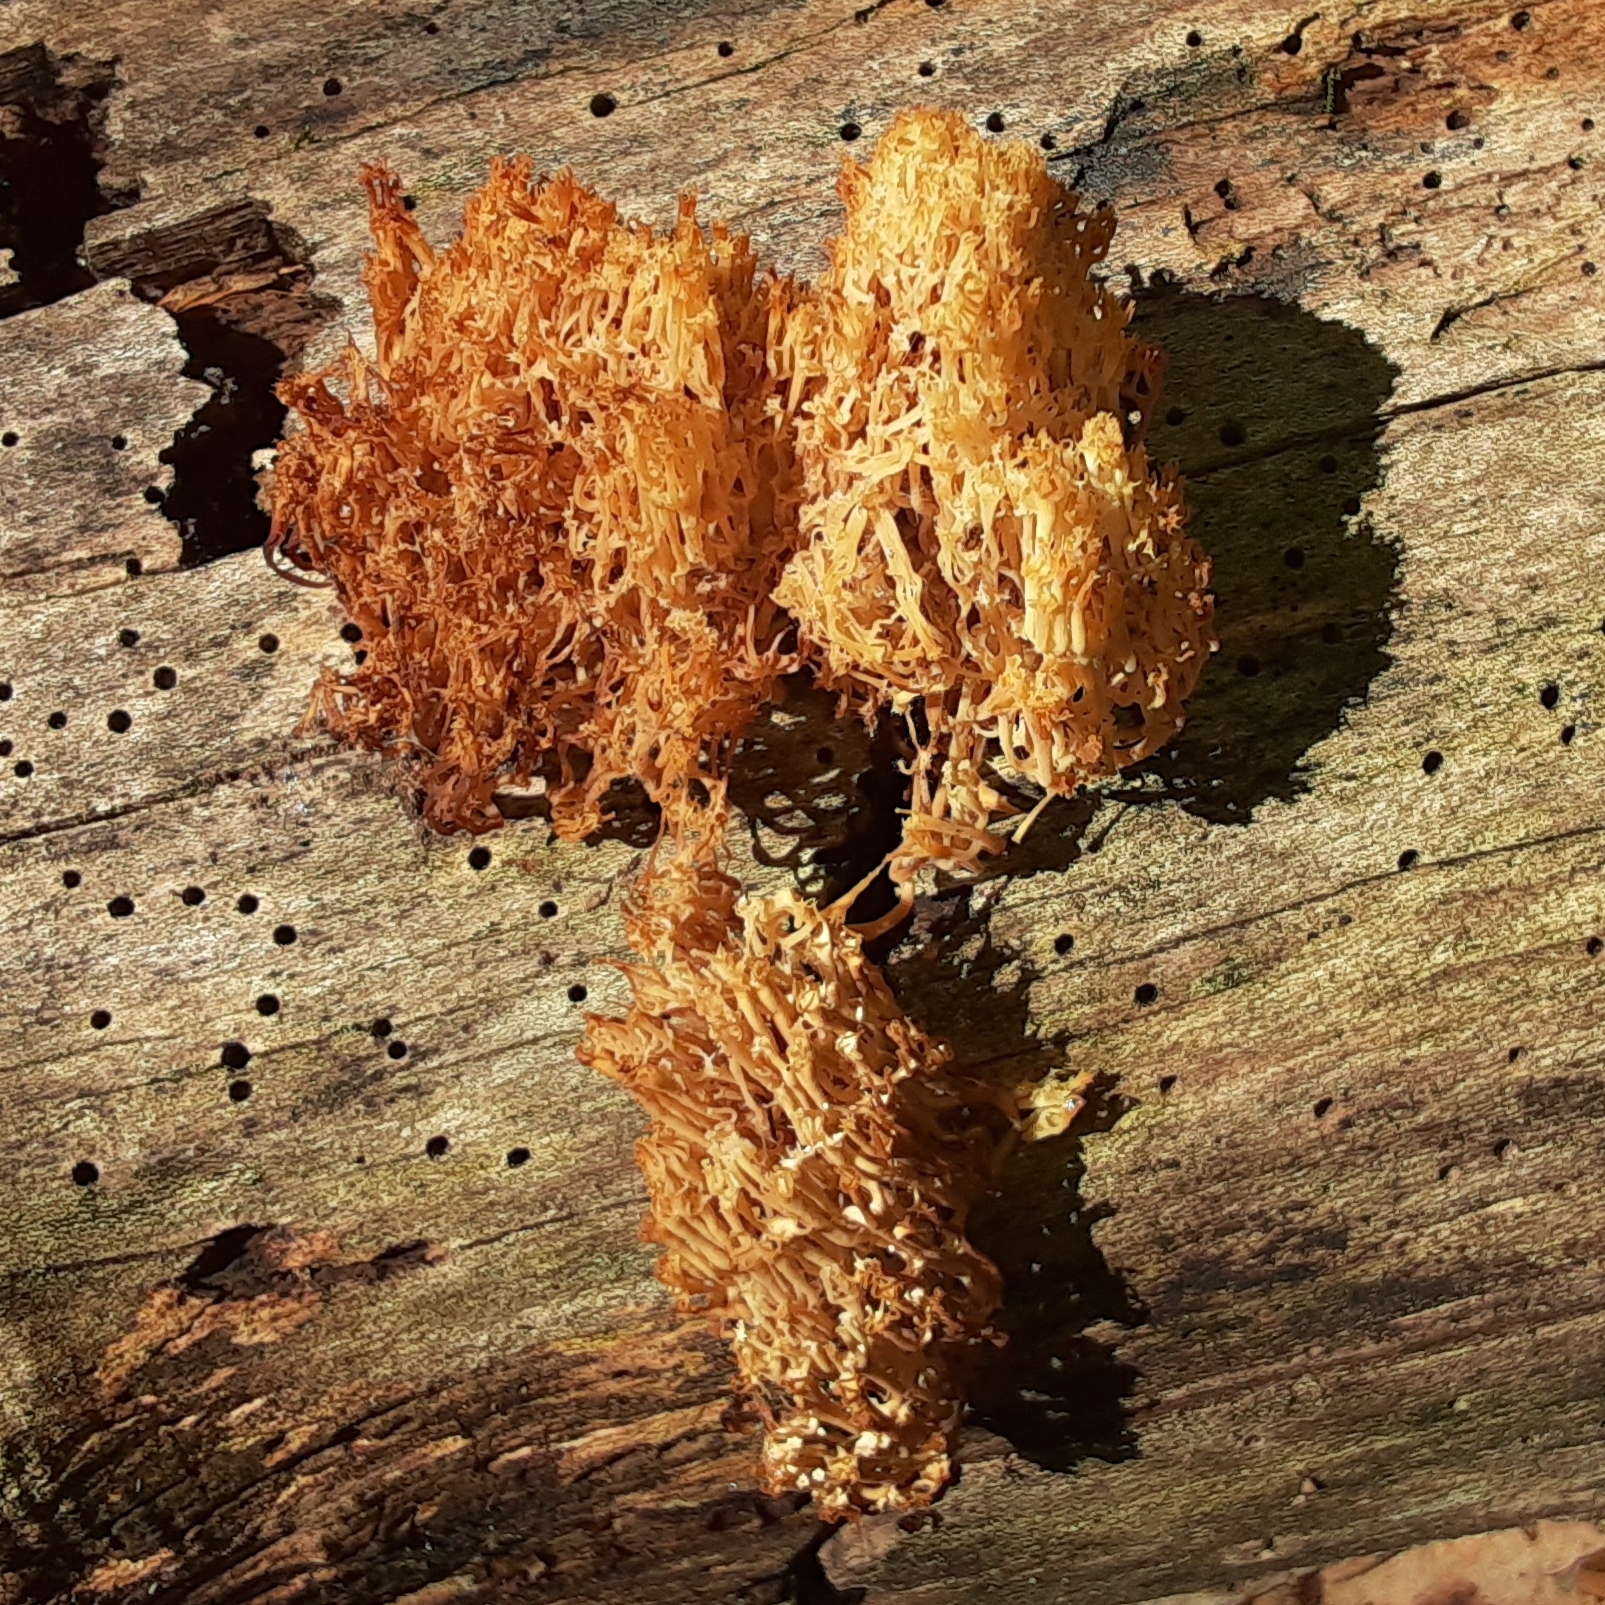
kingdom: Fungi
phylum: Basidiomycota
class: Agaricomycetes
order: Russulales
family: Auriscalpiaceae
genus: Artomyces
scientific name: Artomyces pyxidatus
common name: Crown-tipped coral fungus
